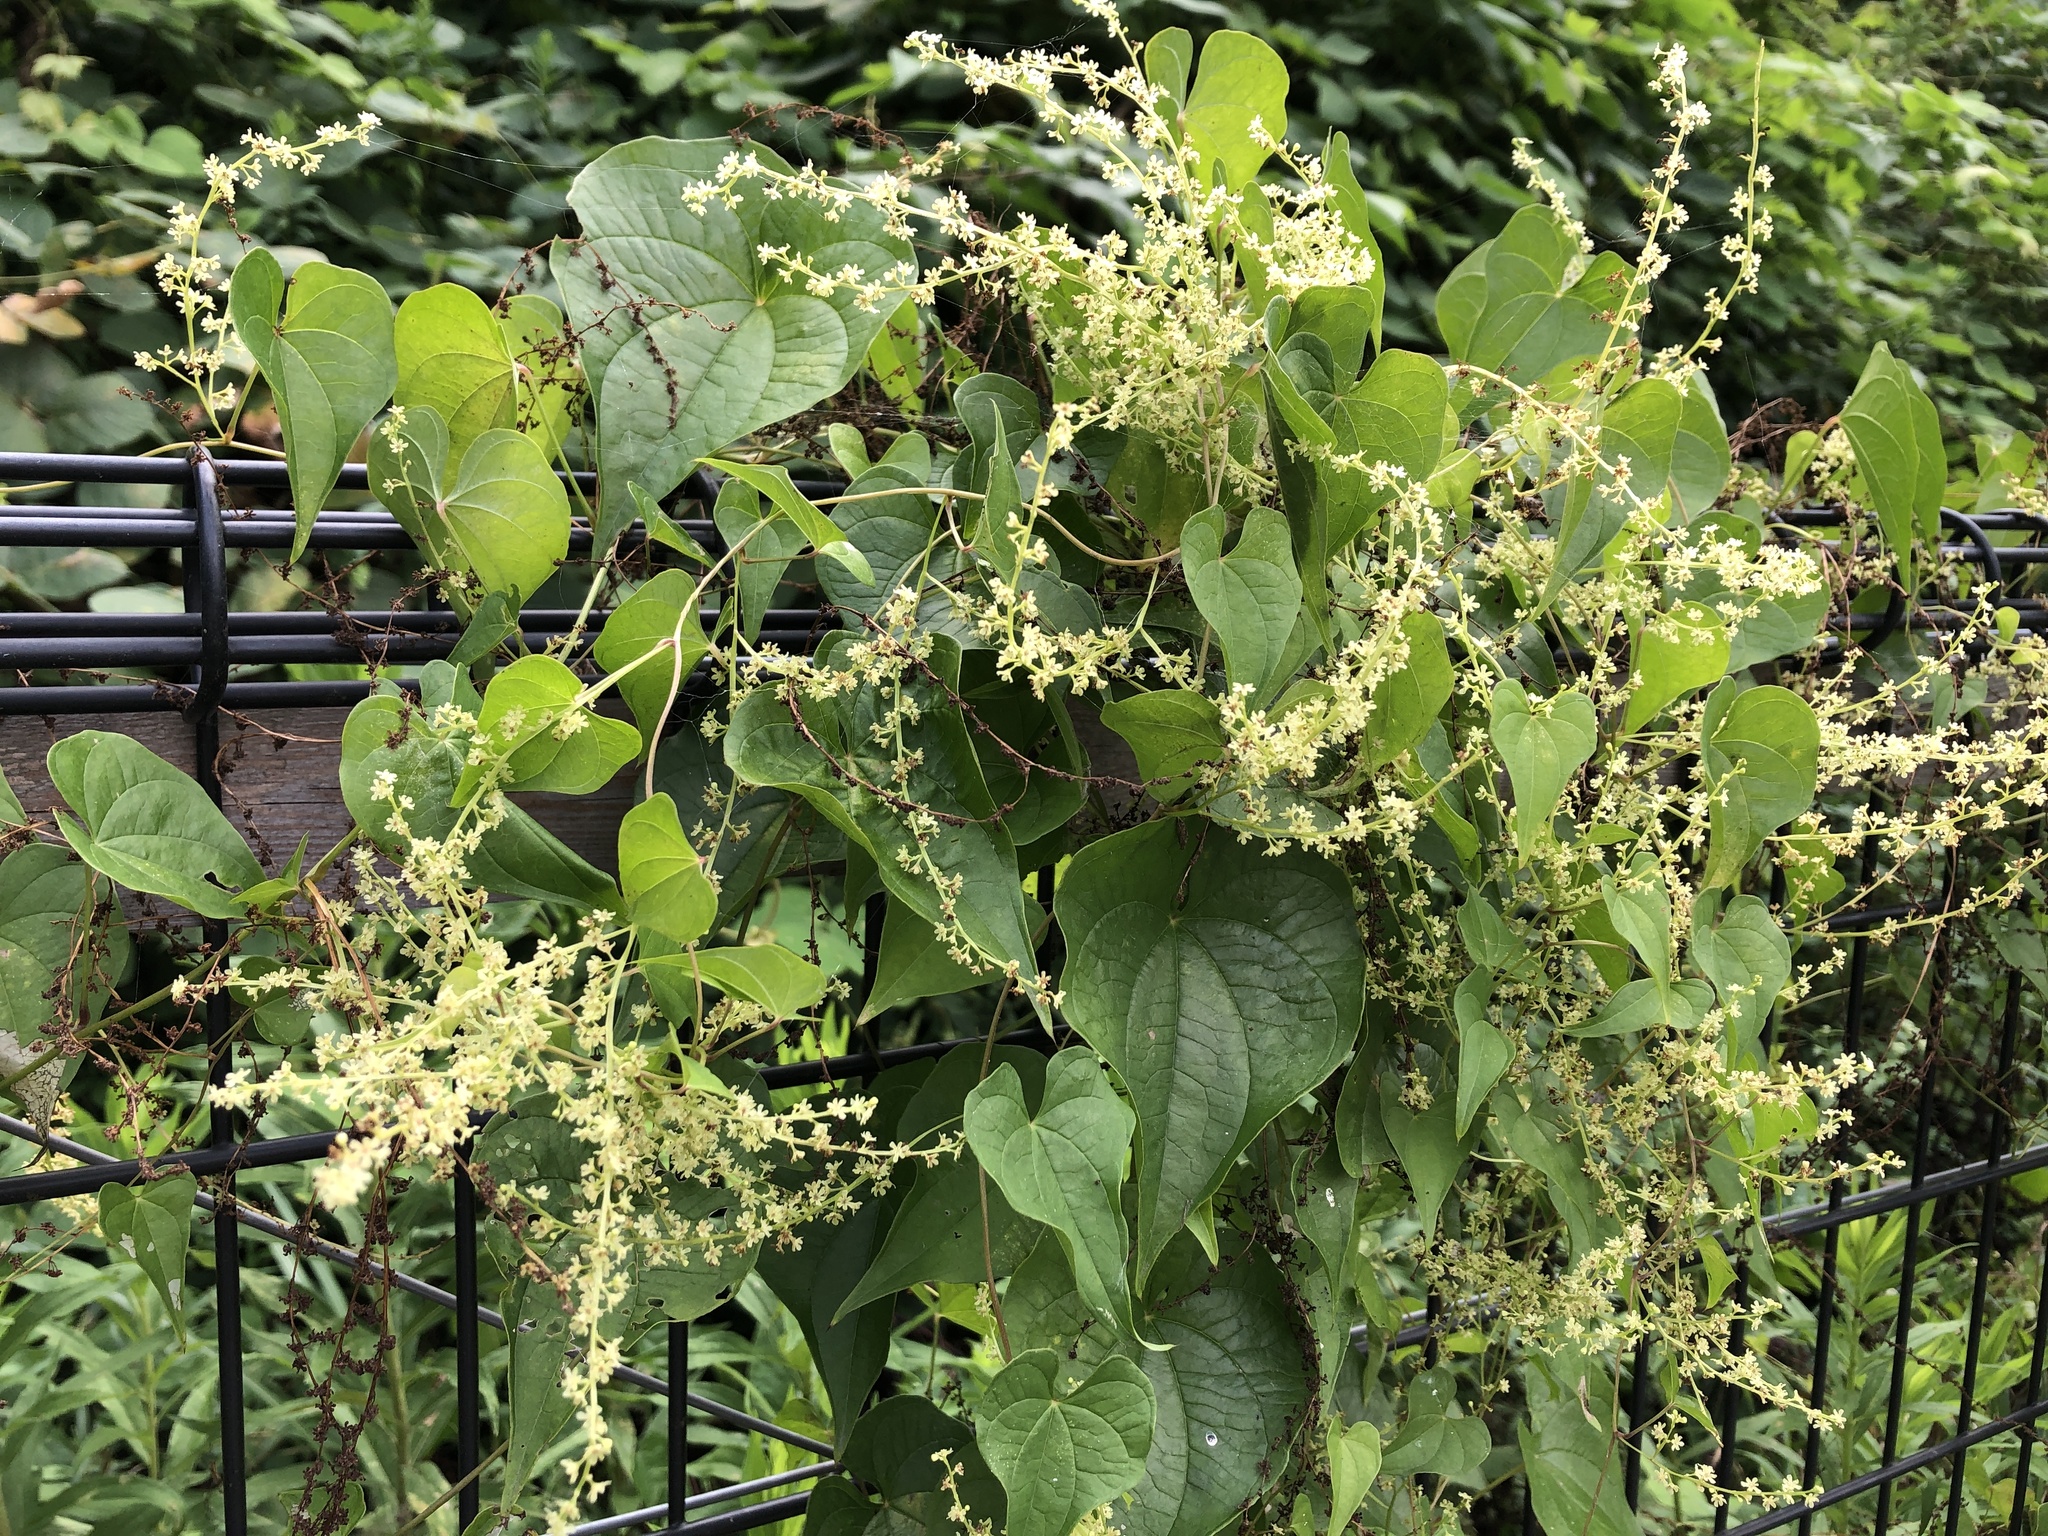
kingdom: Plantae
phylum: Tracheophyta
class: Liliopsida
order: Dioscoreales
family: Dioscoreaceae
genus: Dioscorea
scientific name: Dioscorea tokoro
